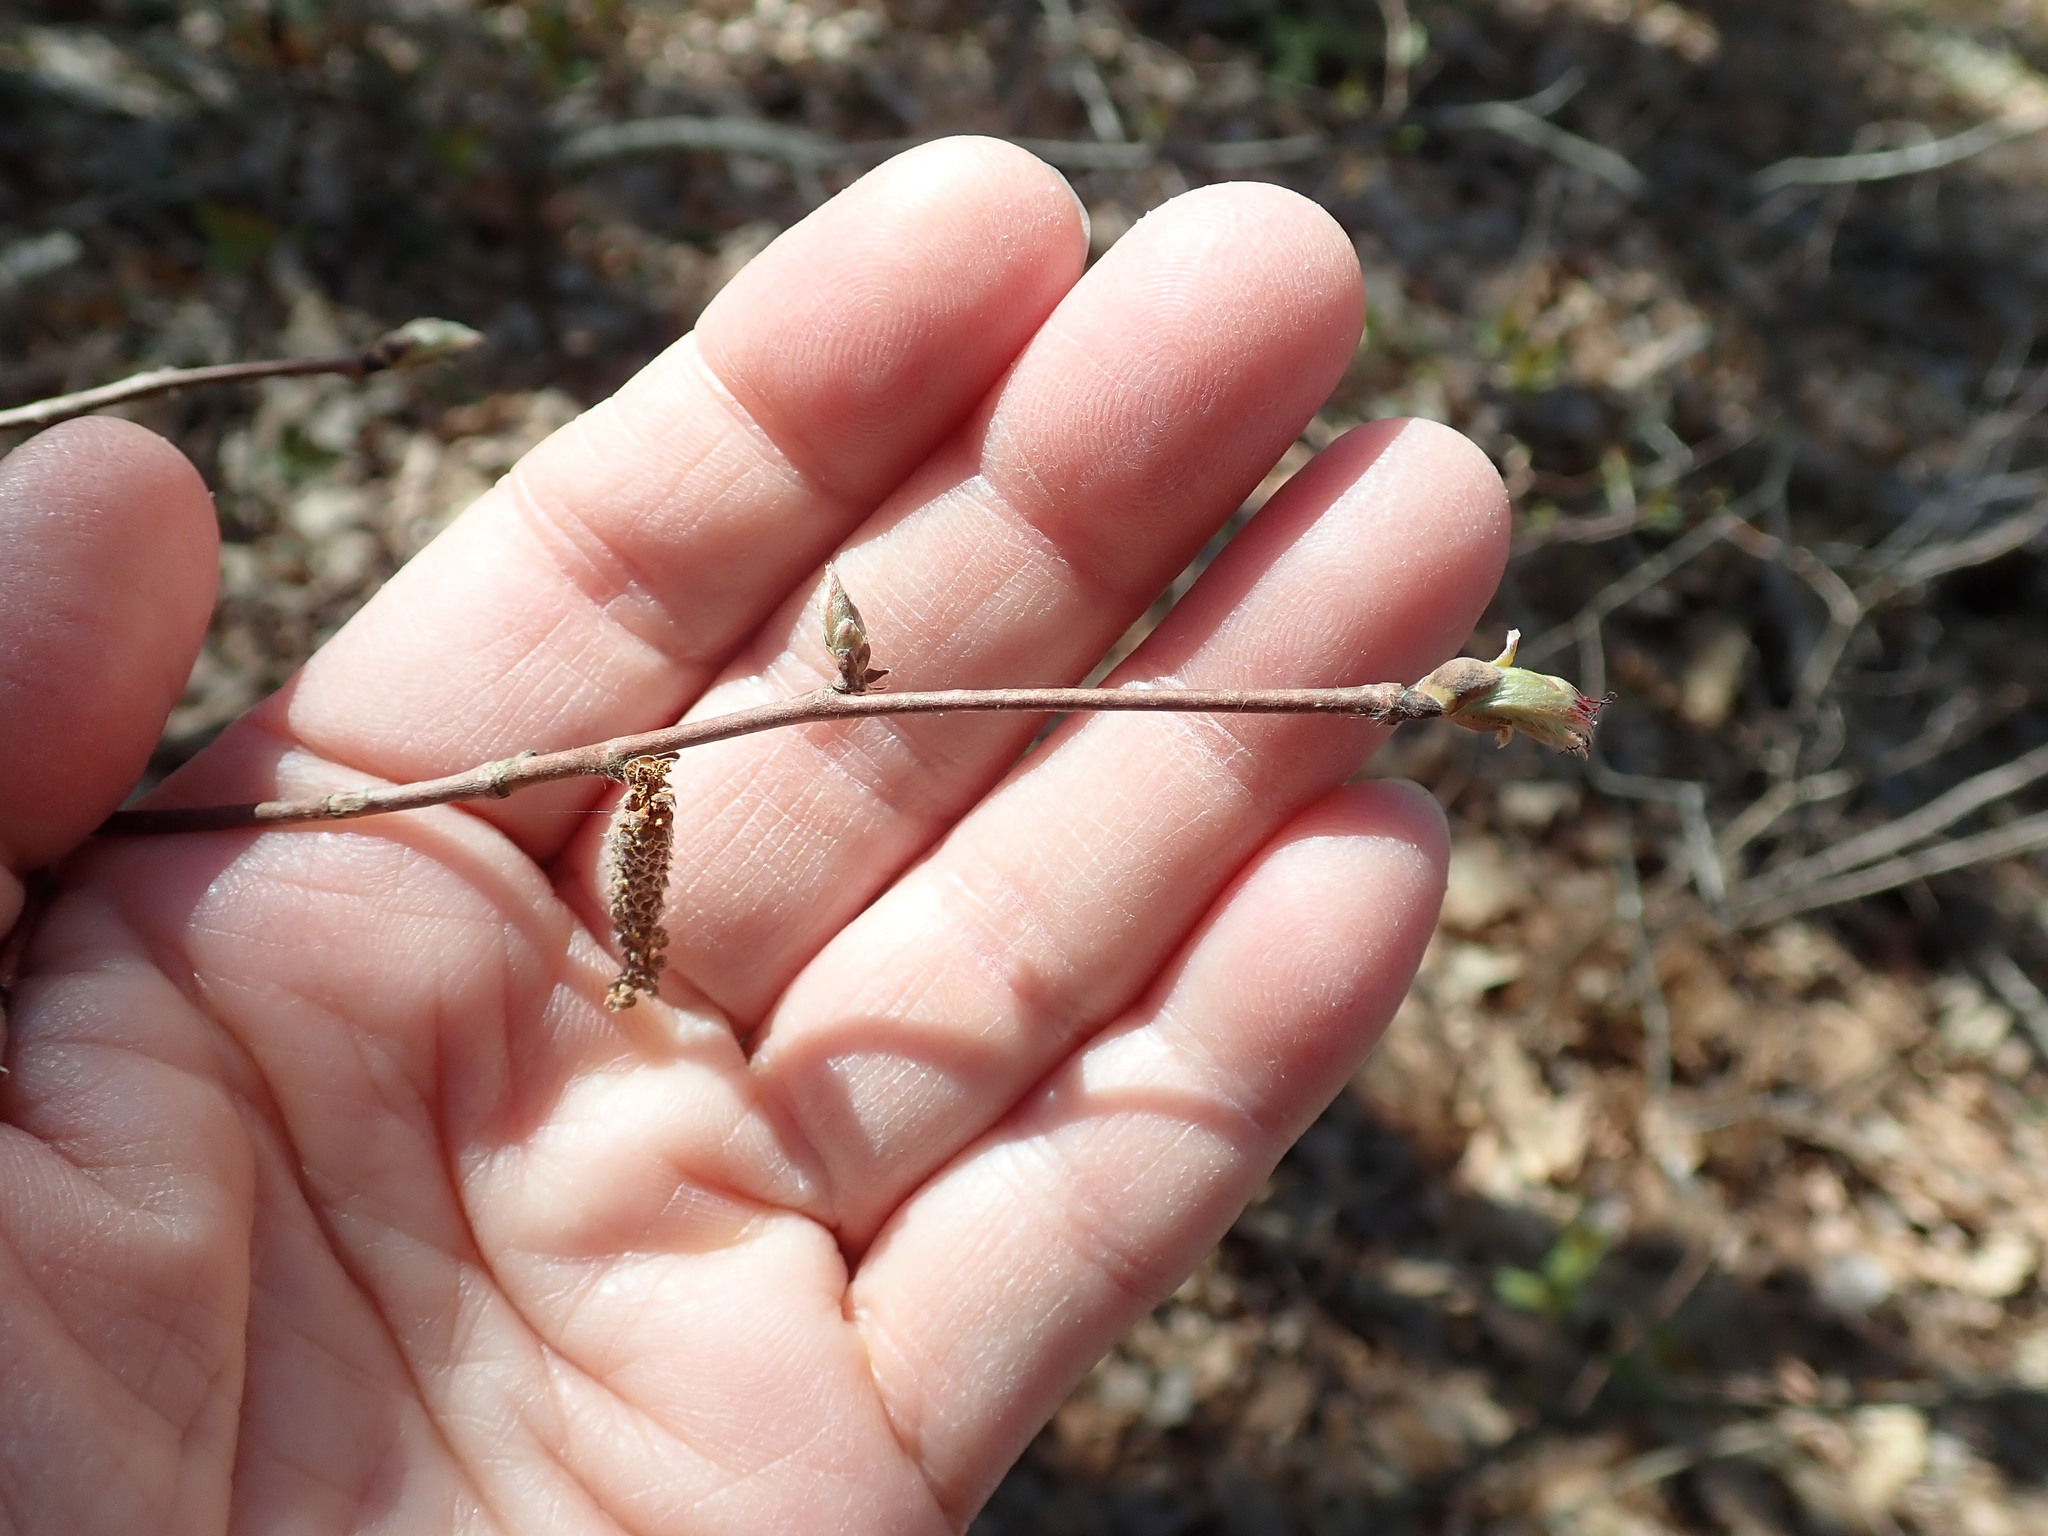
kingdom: Plantae
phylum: Tracheophyta
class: Magnoliopsida
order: Fagales
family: Betulaceae
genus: Corylus
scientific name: Corylus cornuta
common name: Beaked hazel
